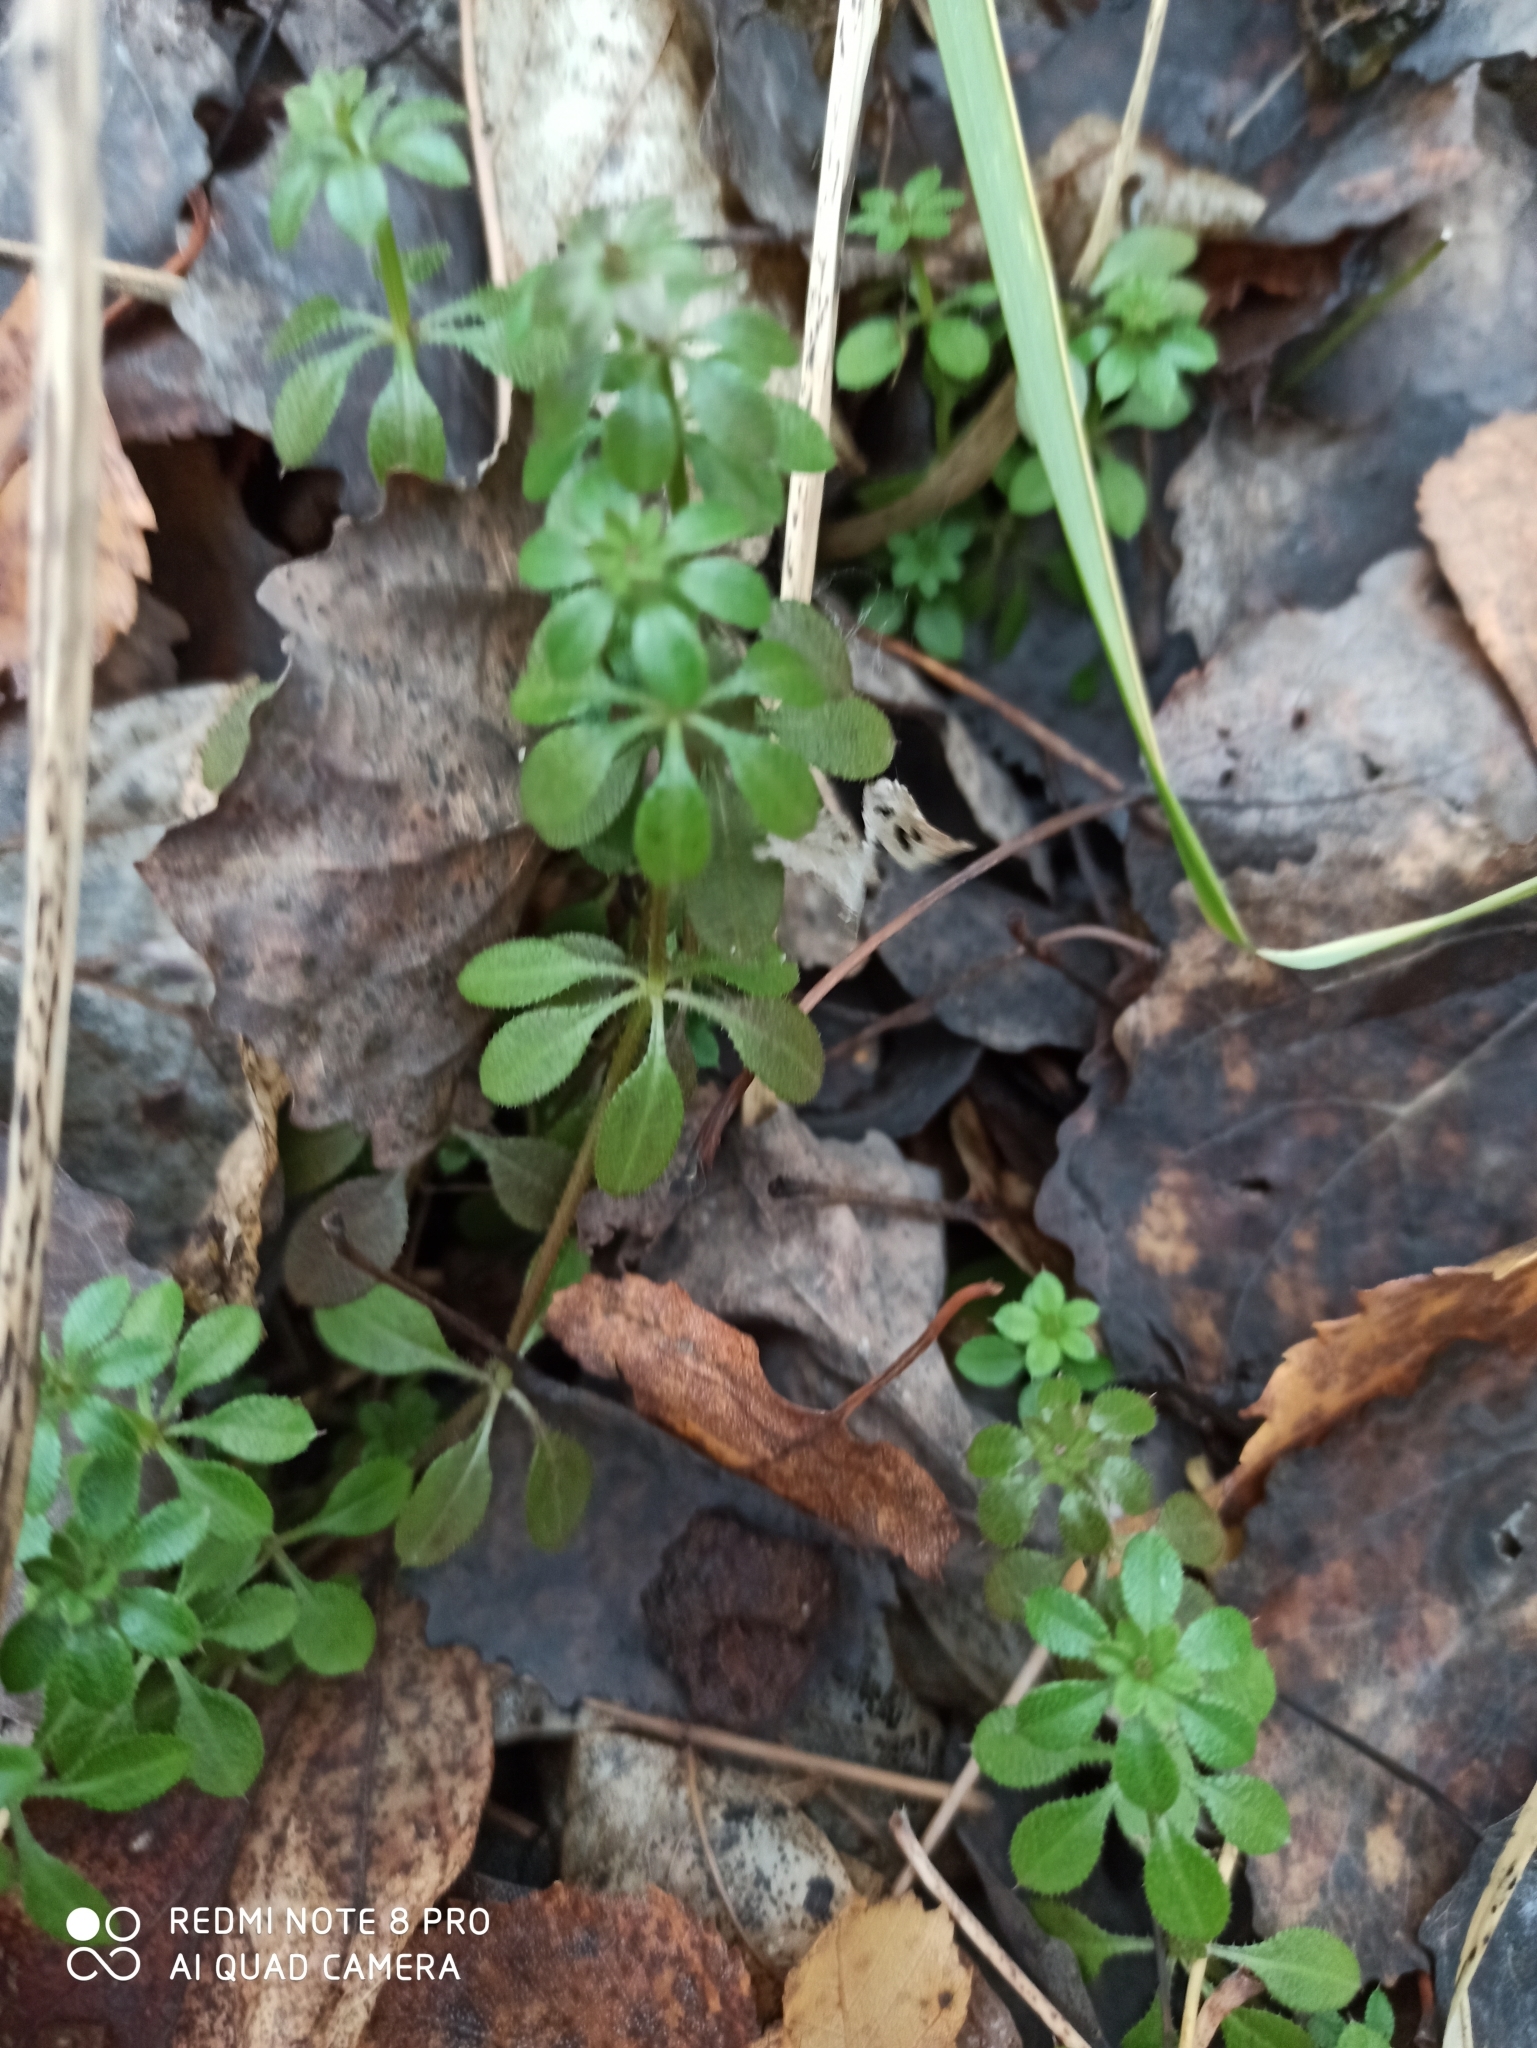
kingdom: Plantae
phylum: Tracheophyta
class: Magnoliopsida
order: Gentianales
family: Rubiaceae
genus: Galium
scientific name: Galium aparine
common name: Cleavers
